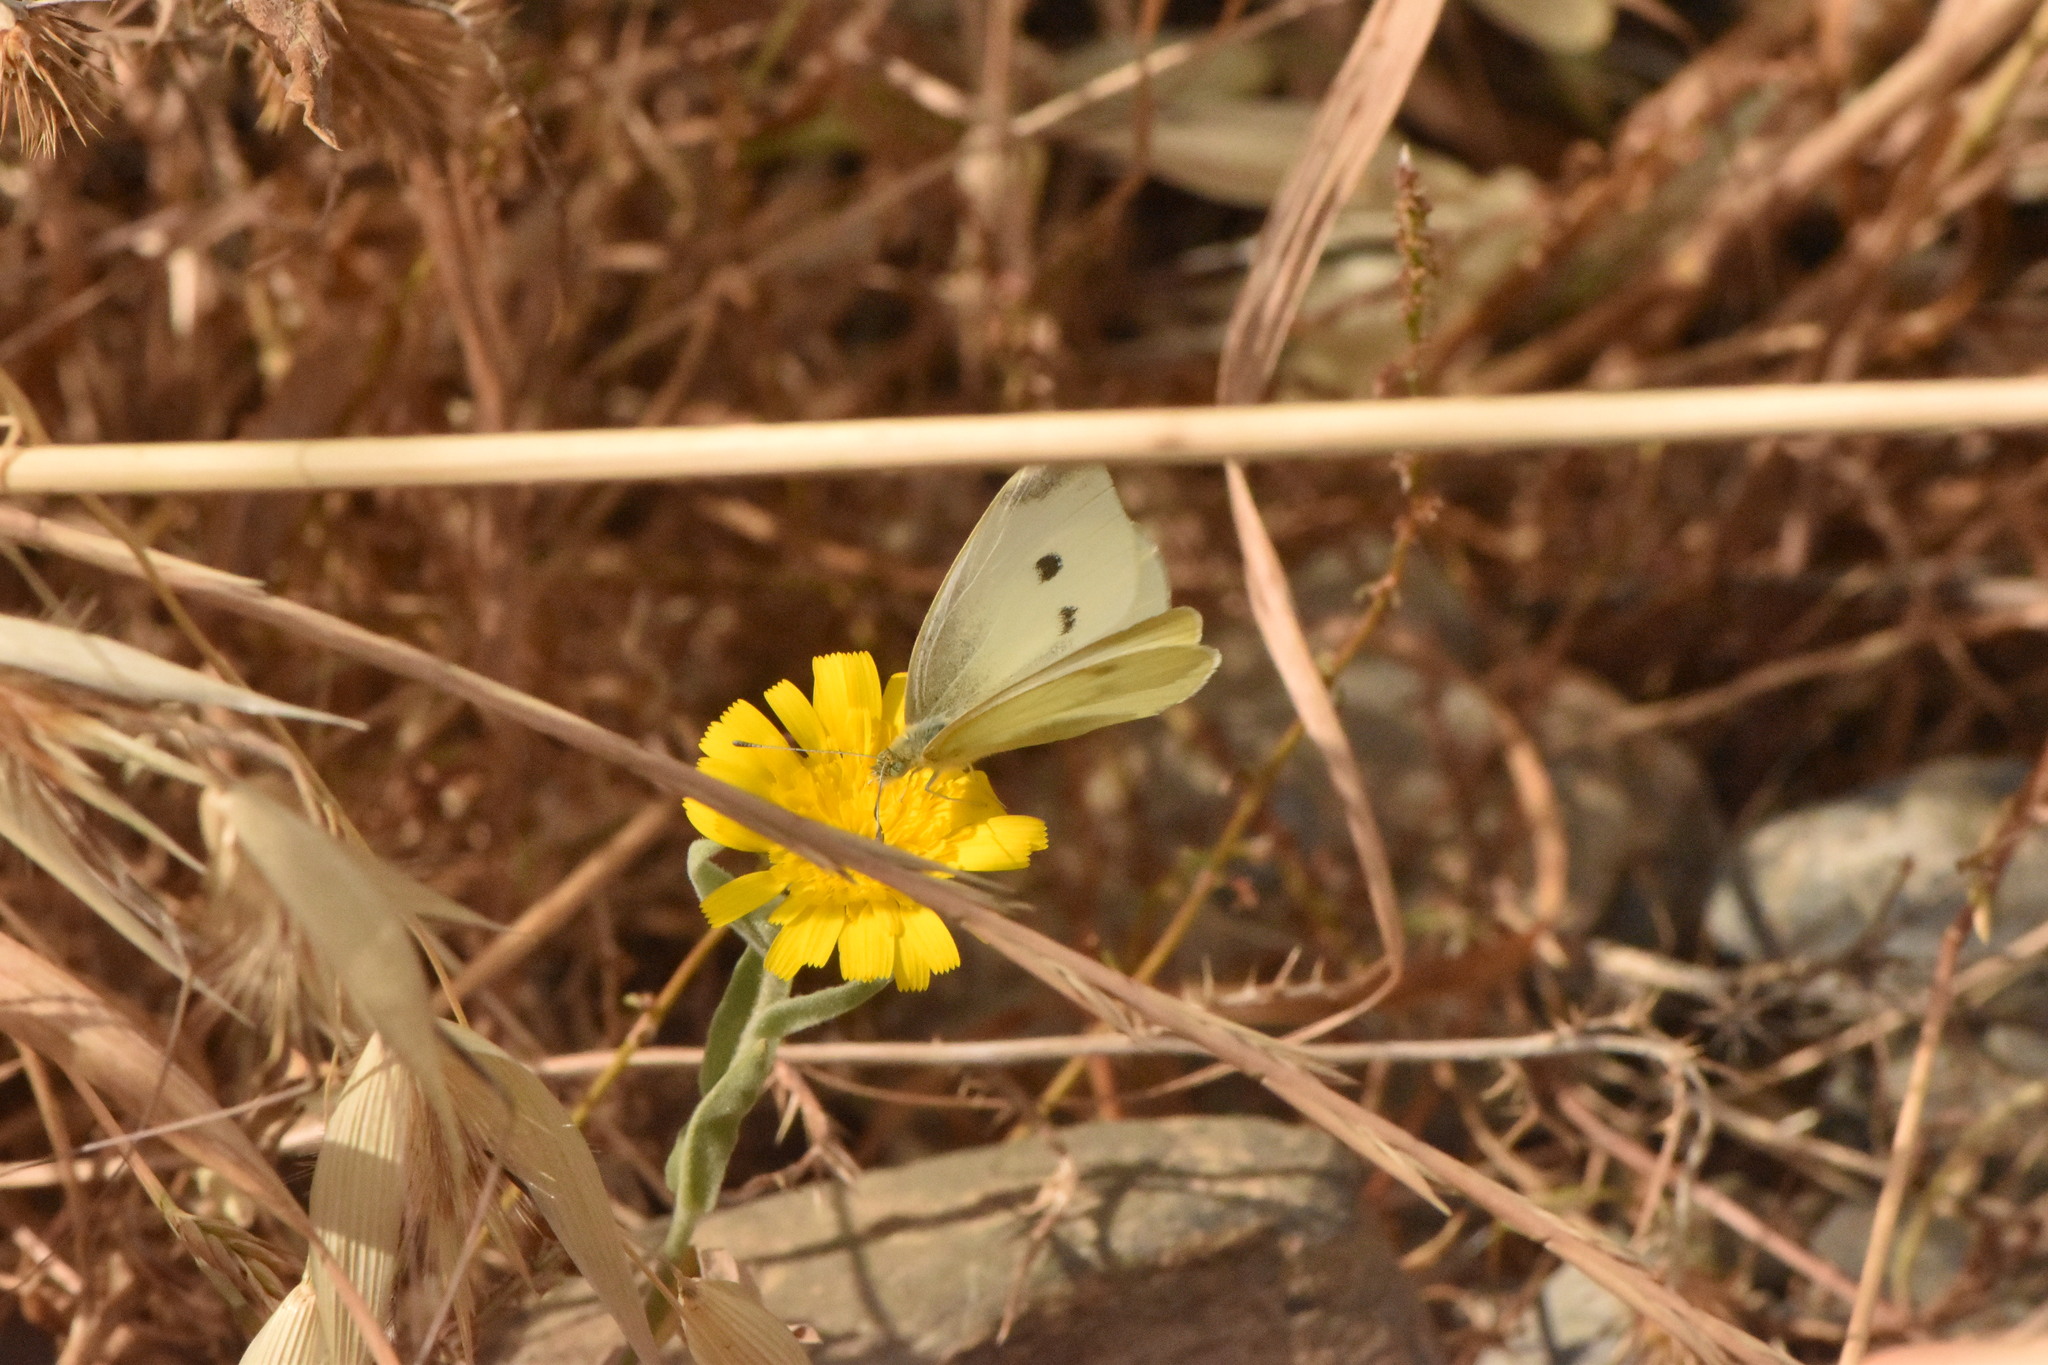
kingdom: Animalia
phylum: Arthropoda
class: Insecta
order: Lepidoptera
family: Pieridae
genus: Pieris
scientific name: Pieris rapae
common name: Small white
